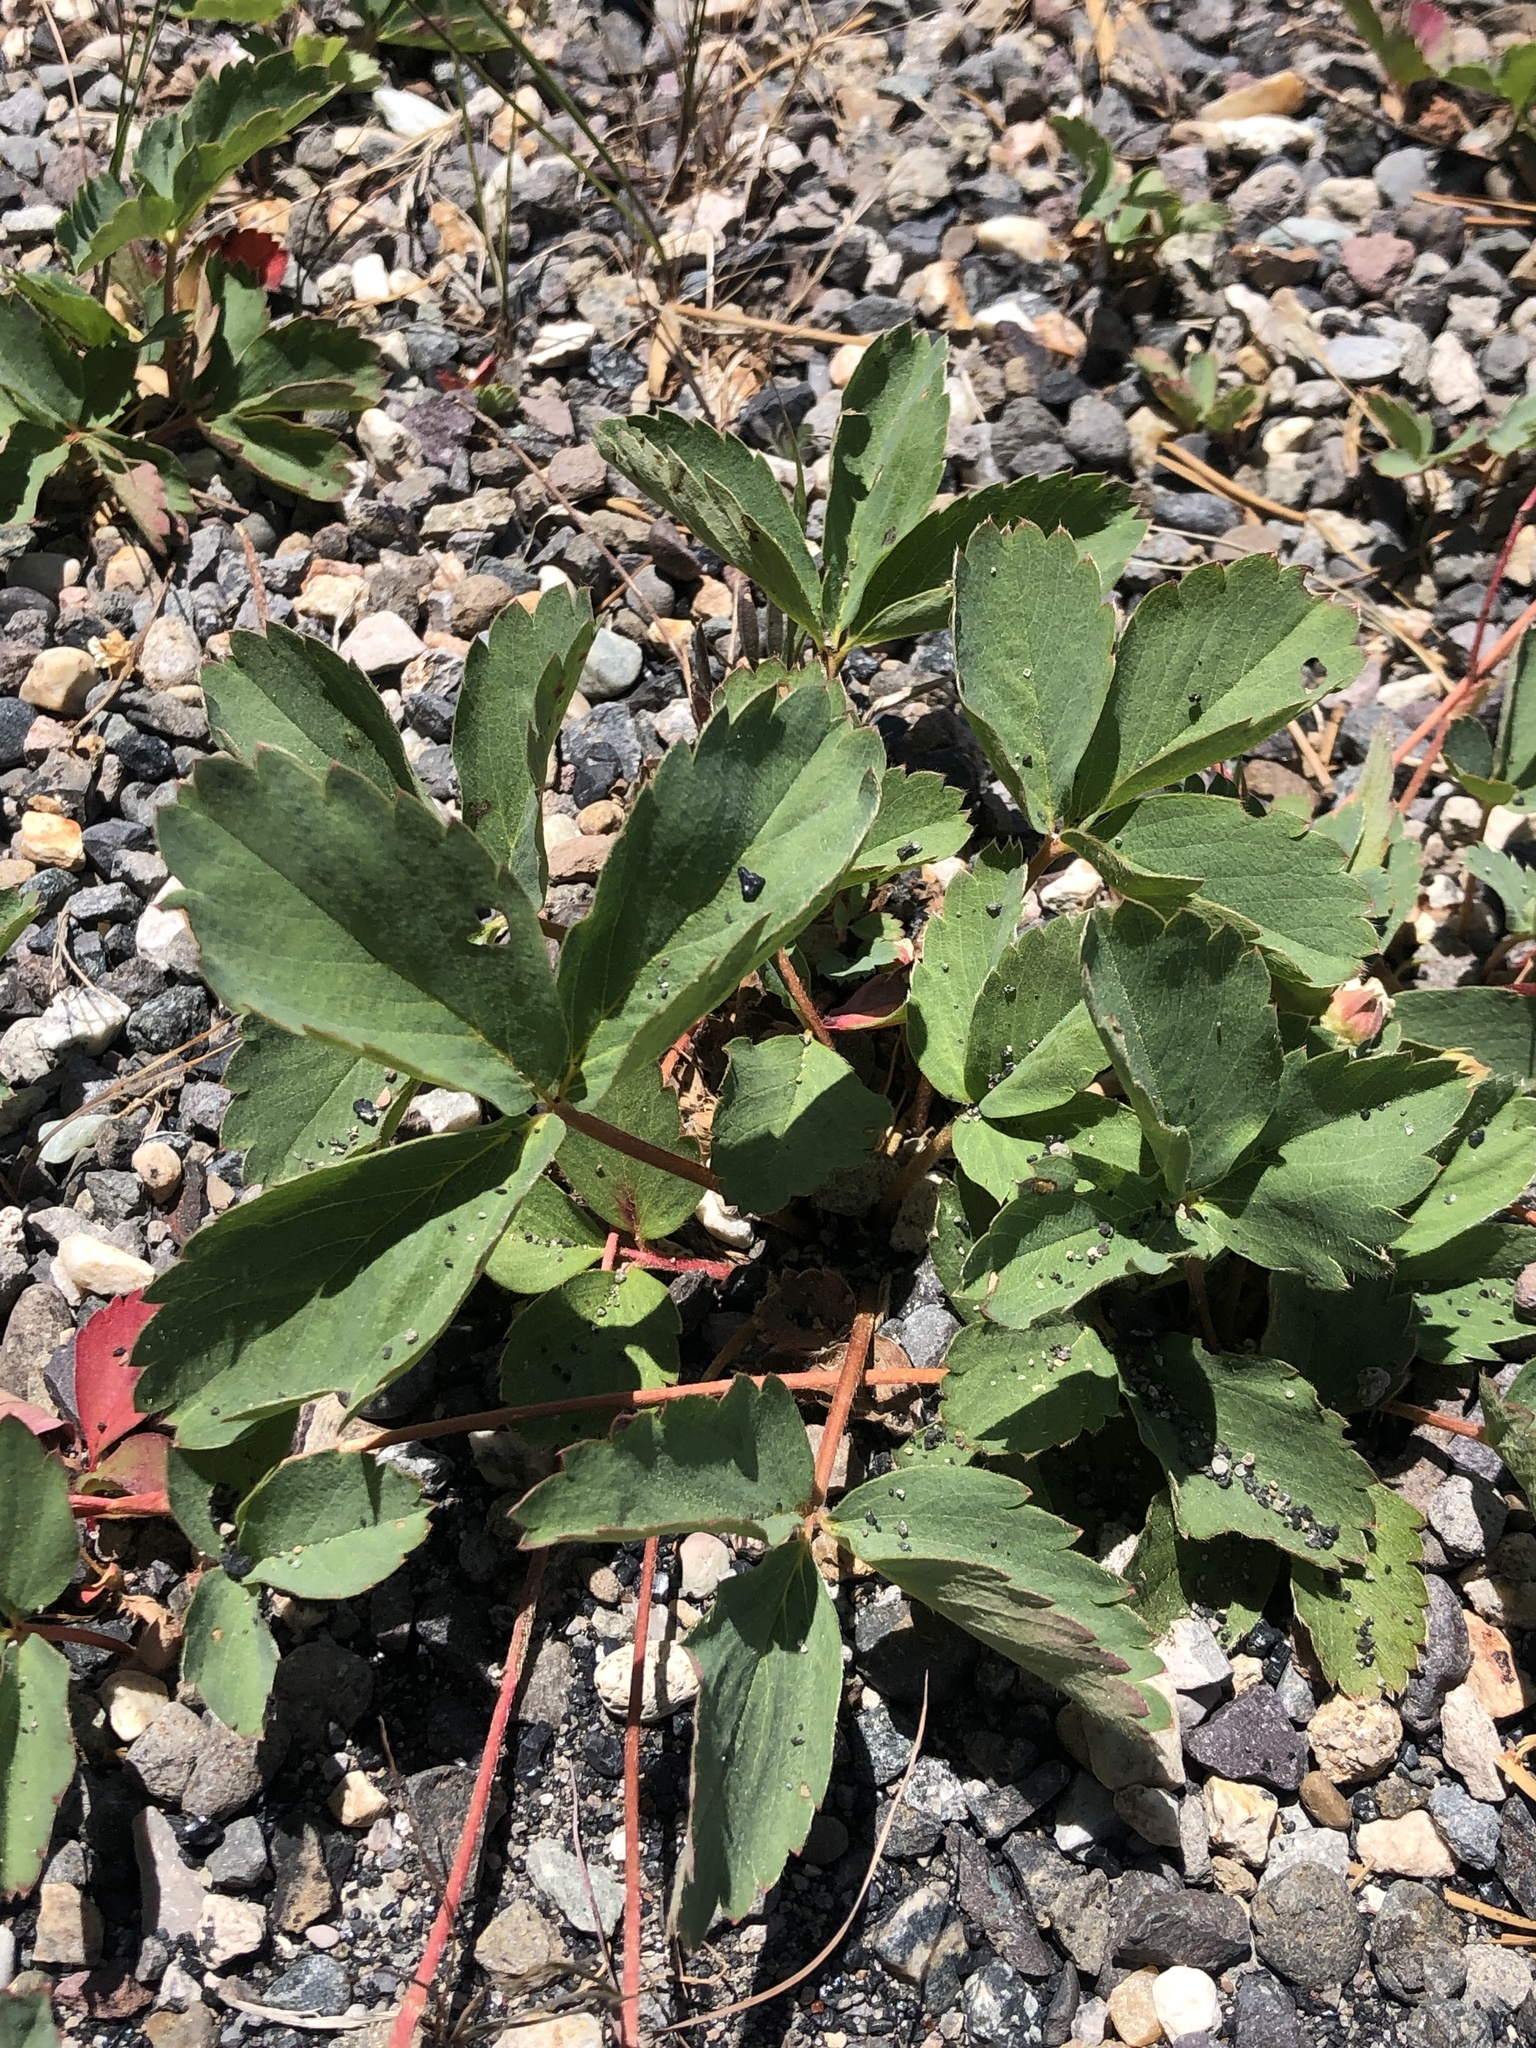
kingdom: Plantae
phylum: Tracheophyta
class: Magnoliopsida
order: Rosales
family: Rosaceae
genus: Fragaria
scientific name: Fragaria virginiana
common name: Thickleaved wild strawberry
